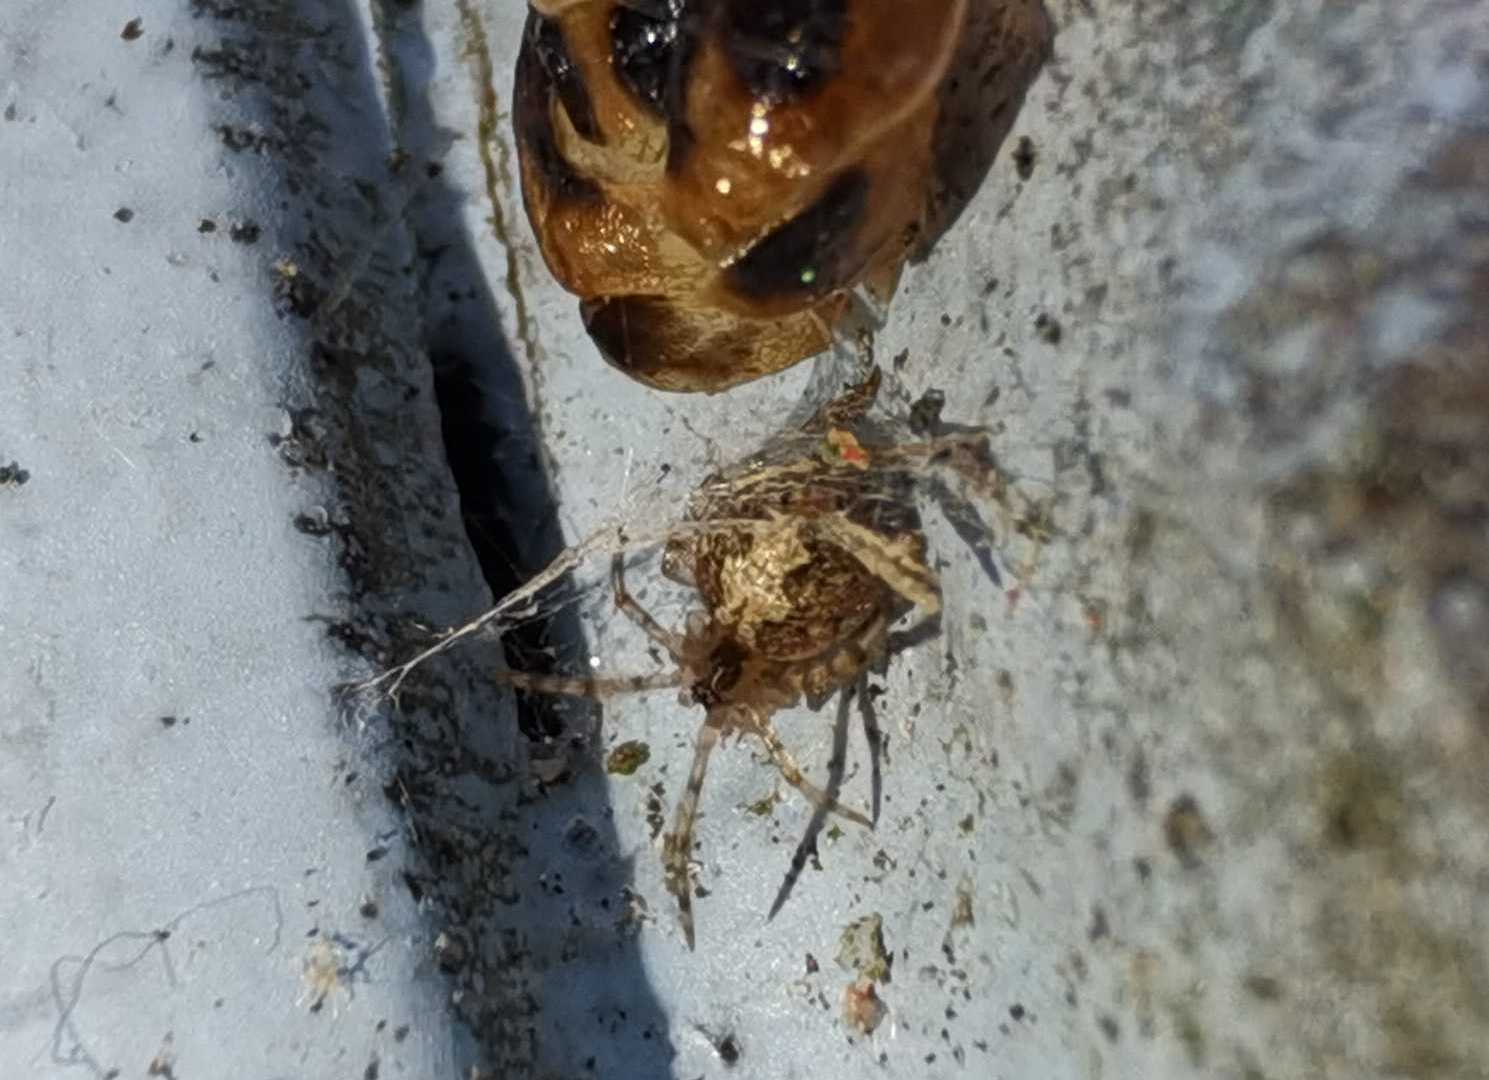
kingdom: Animalia
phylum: Arthropoda
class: Arachnida
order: Araneae
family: Theridiidae
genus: Theridion
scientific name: Theridion
